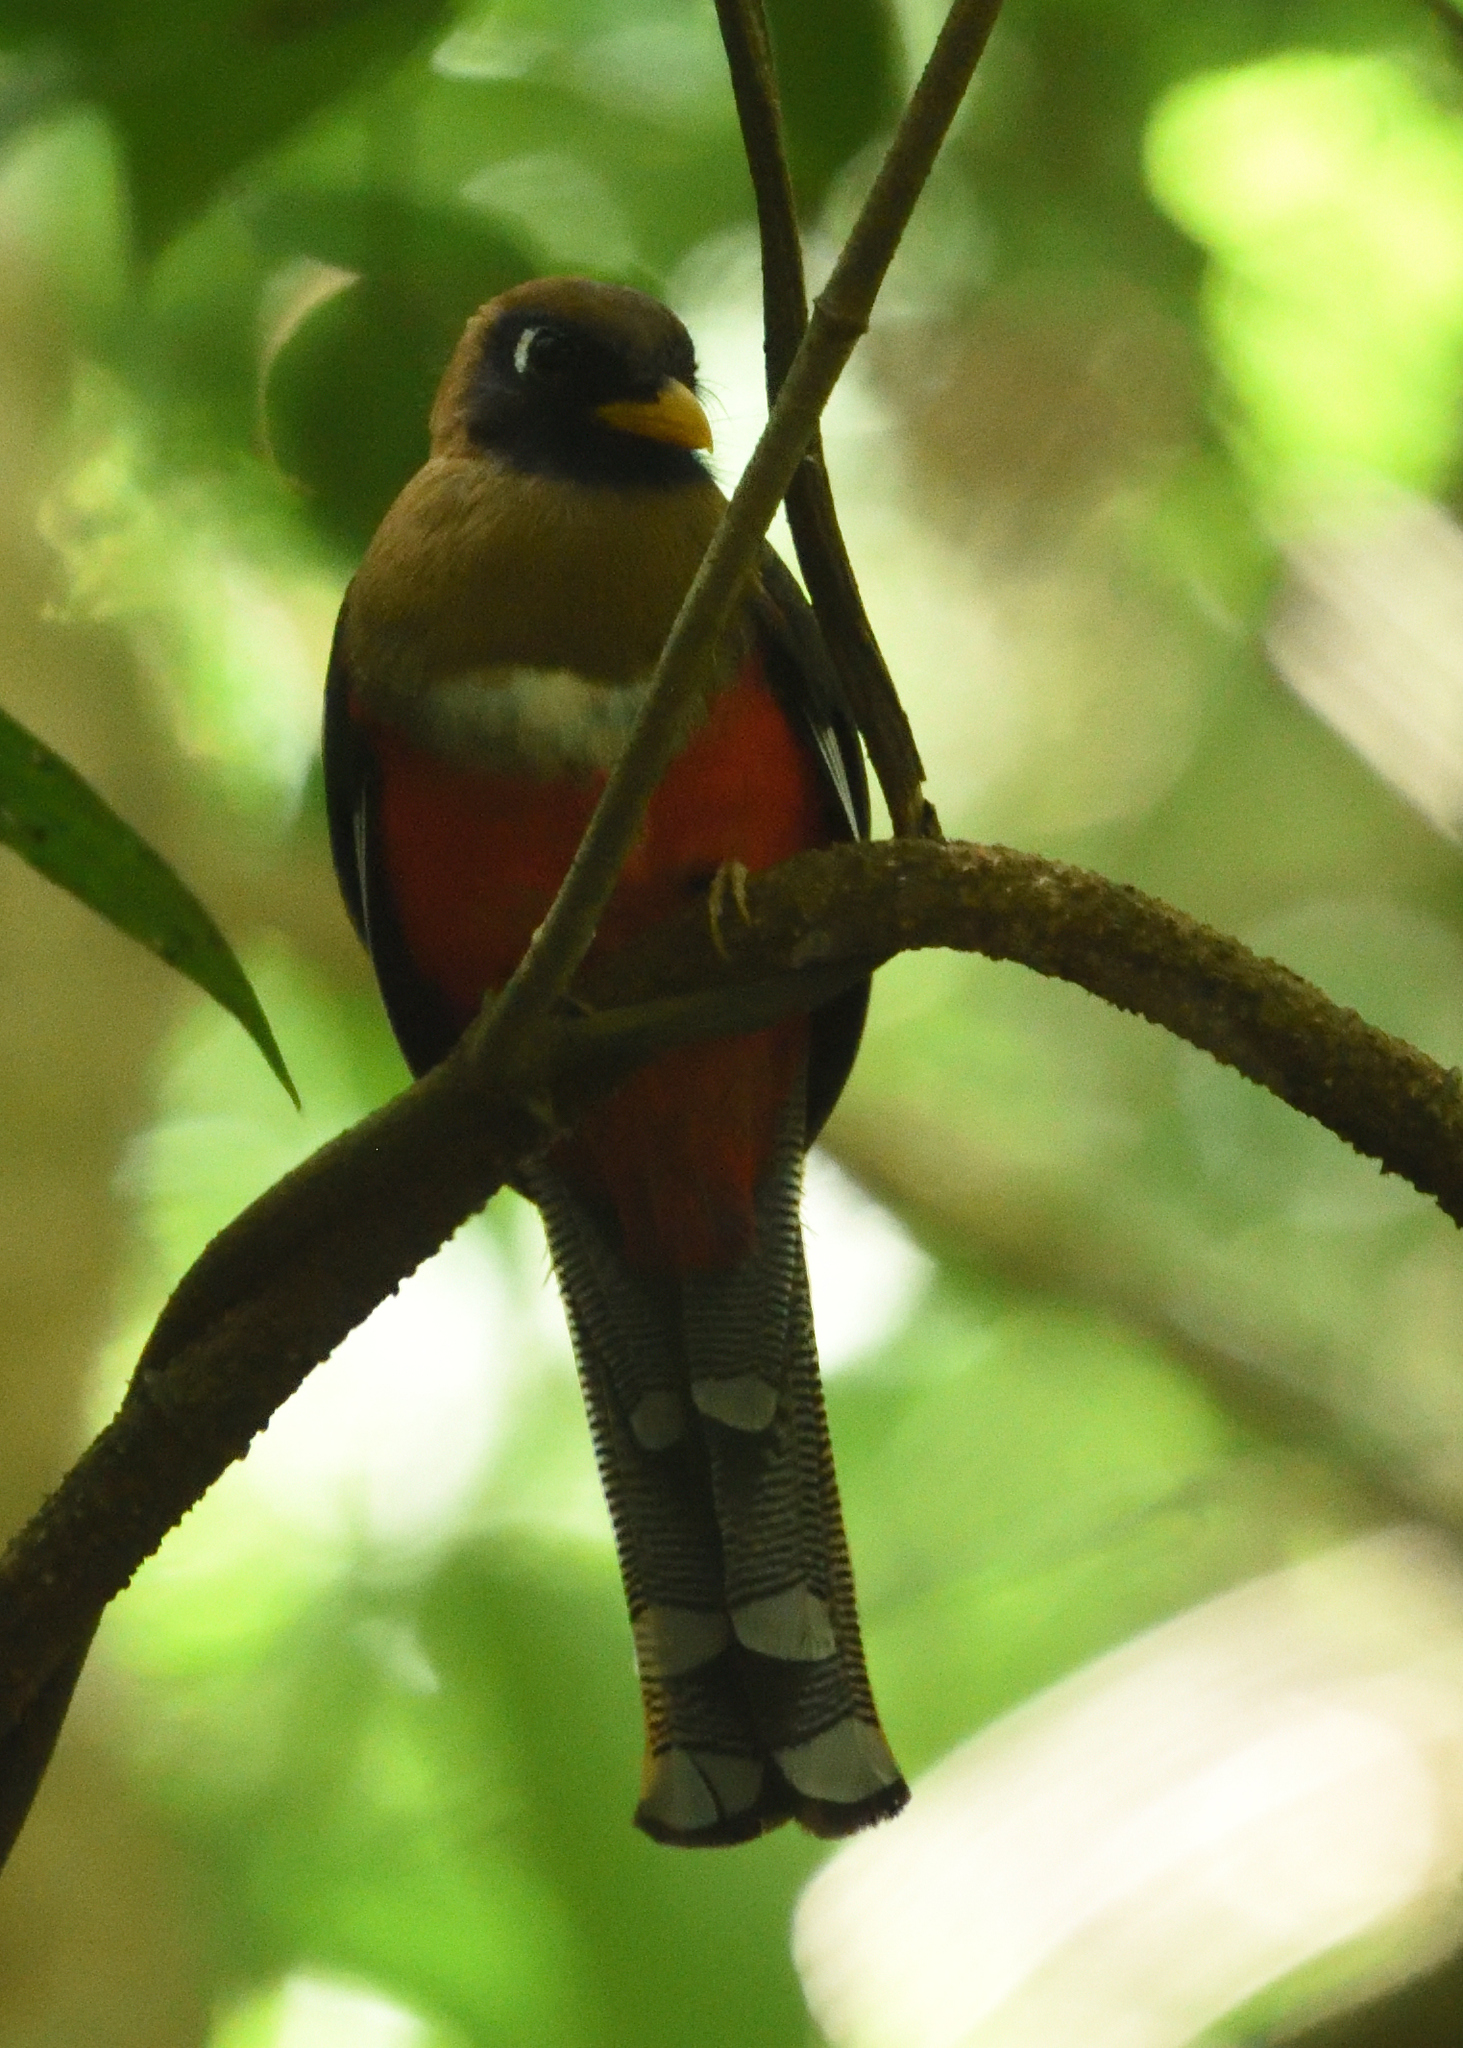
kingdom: Animalia
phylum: Chordata
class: Aves
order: Trogoniformes
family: Trogonidae
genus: Trogon
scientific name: Trogon personatus
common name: Masked trogon
